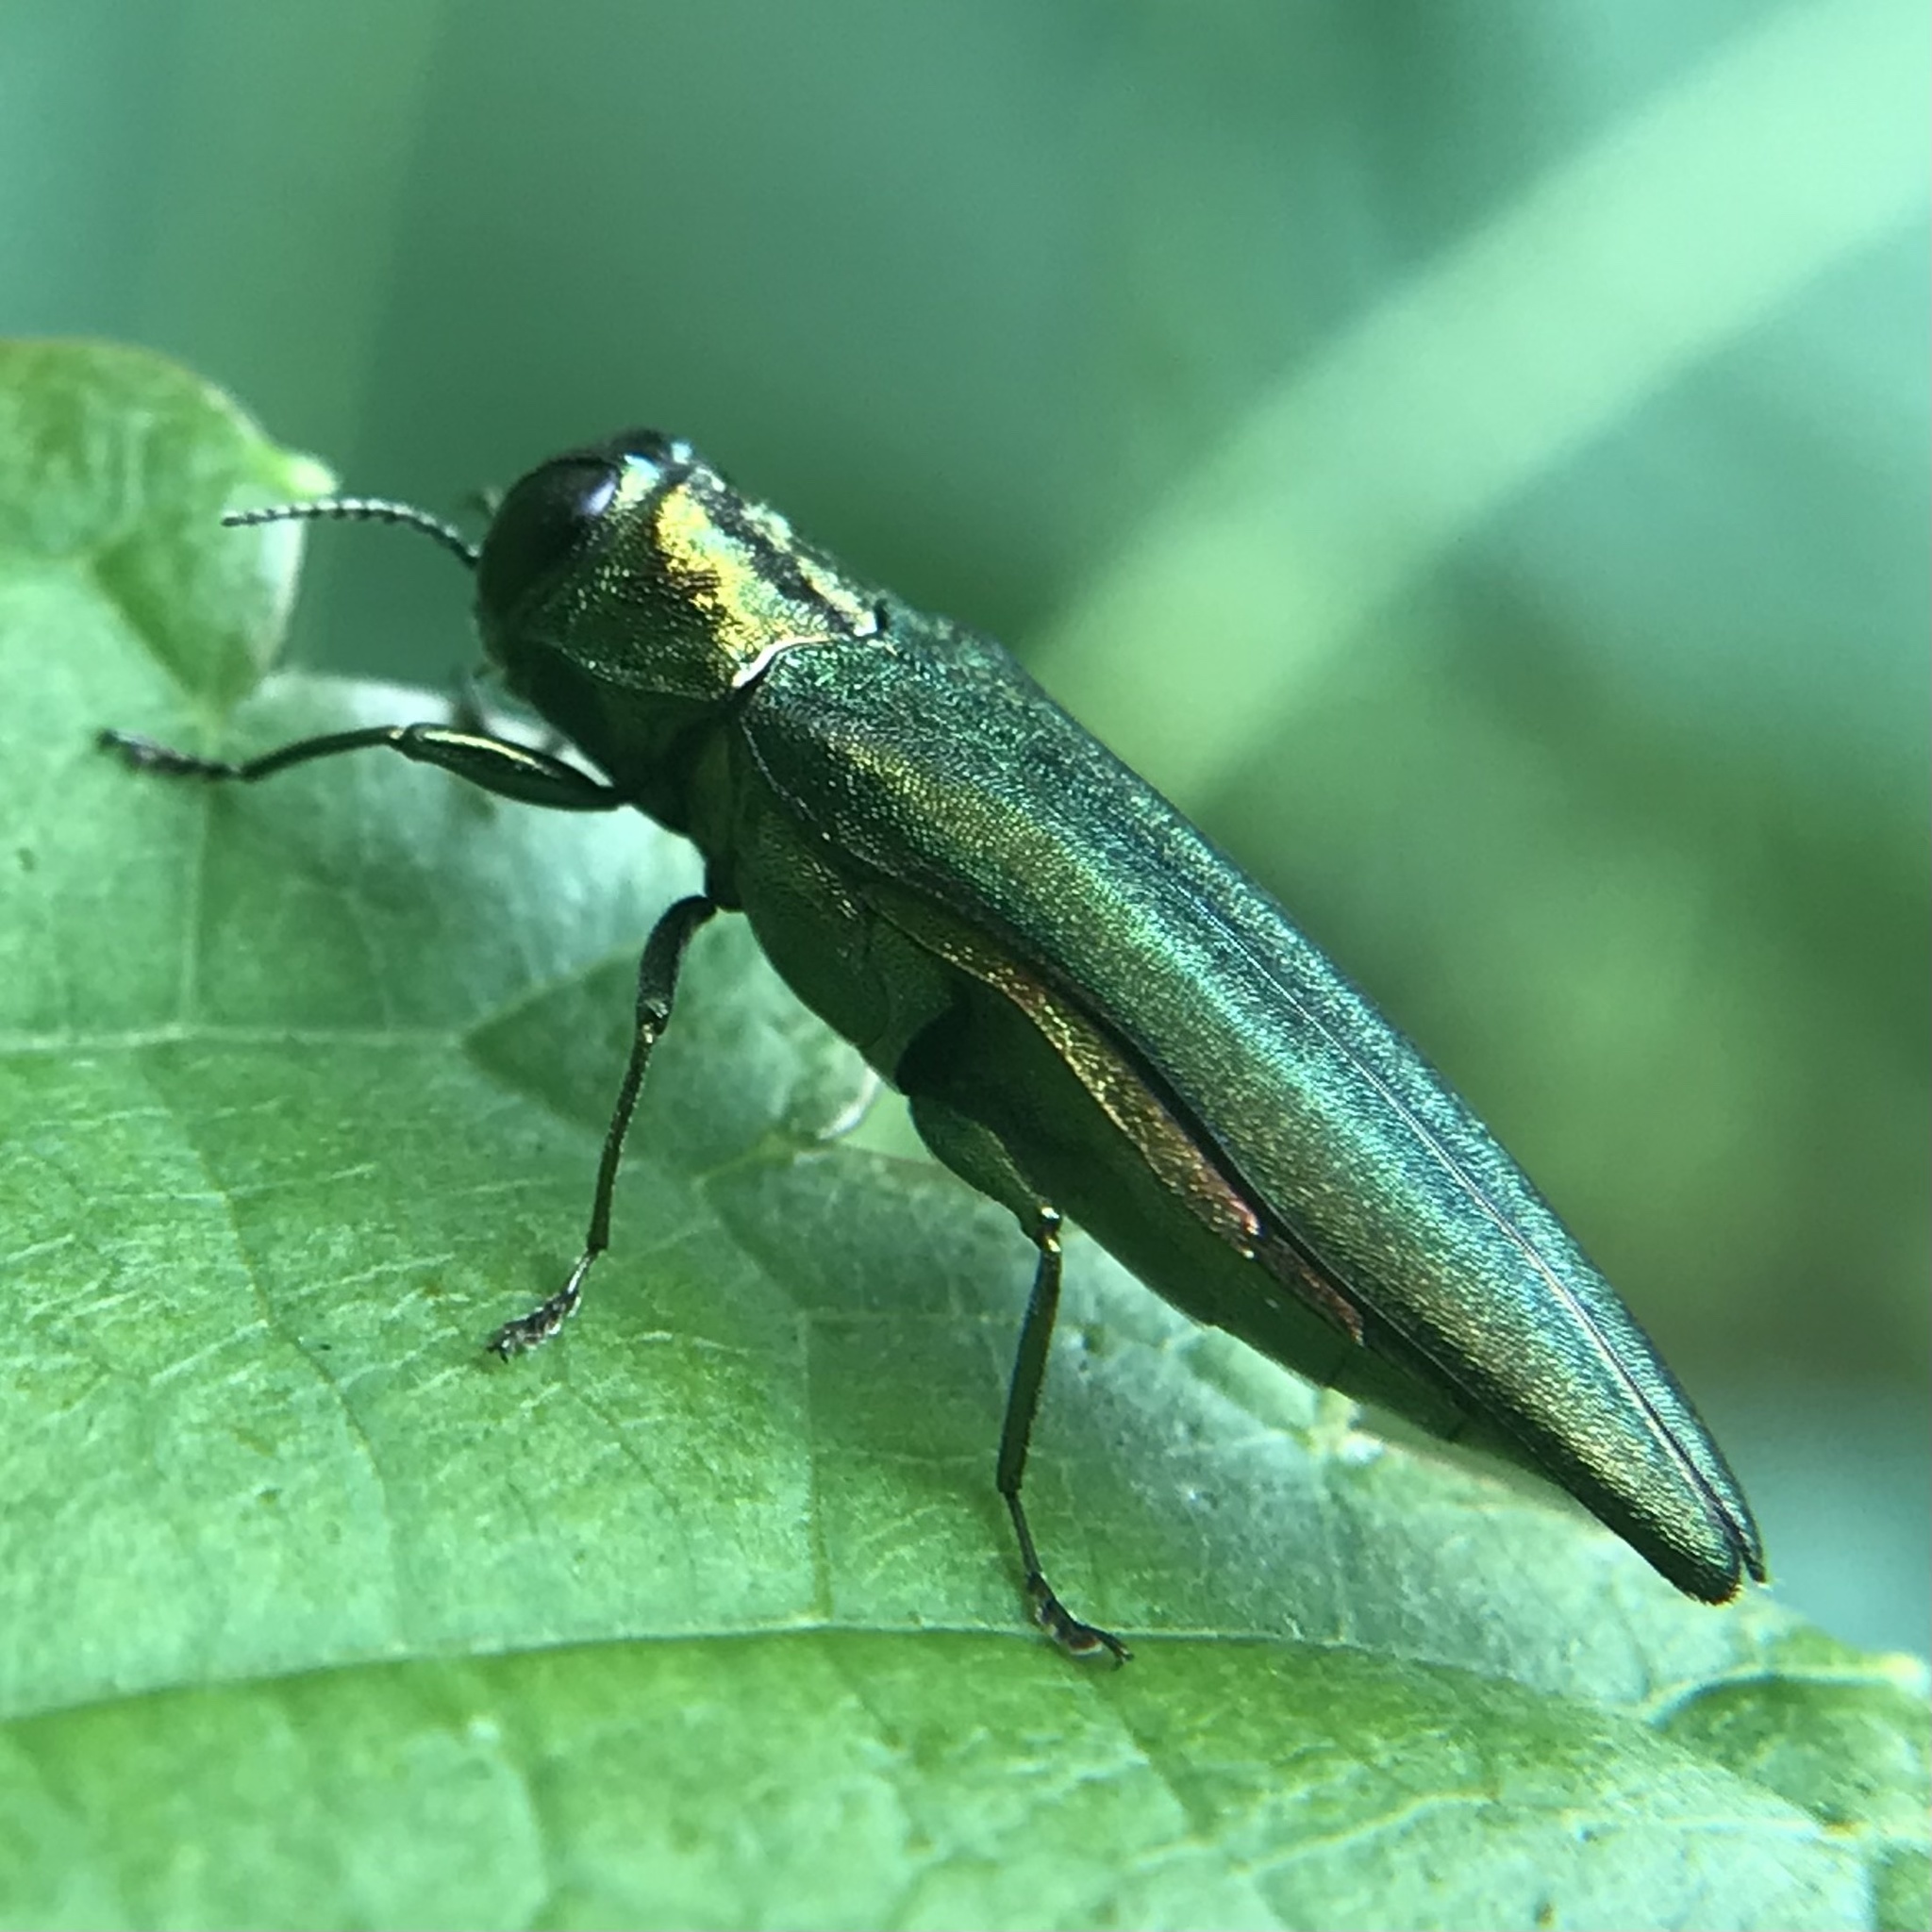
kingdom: Animalia
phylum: Arthropoda
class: Insecta
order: Coleoptera
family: Buprestidae
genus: Agrilus
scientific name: Agrilus planipennis
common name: Emerald ash borer
